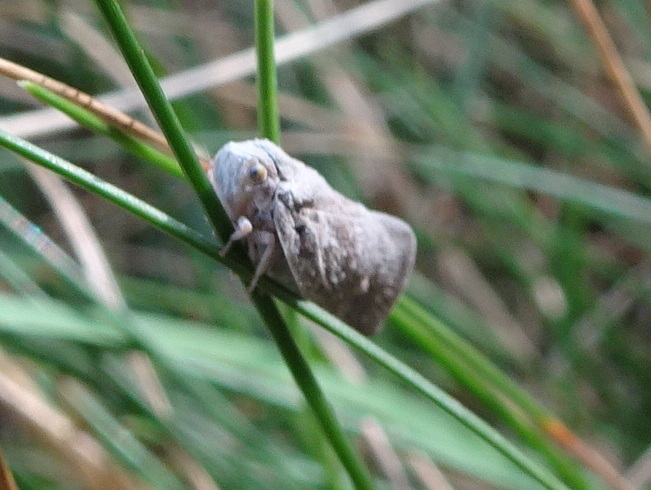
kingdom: Animalia
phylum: Arthropoda
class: Insecta
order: Hemiptera
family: Flatidae
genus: Metcalfa
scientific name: Metcalfa pruinosa
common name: Citrus flatid planthopper
